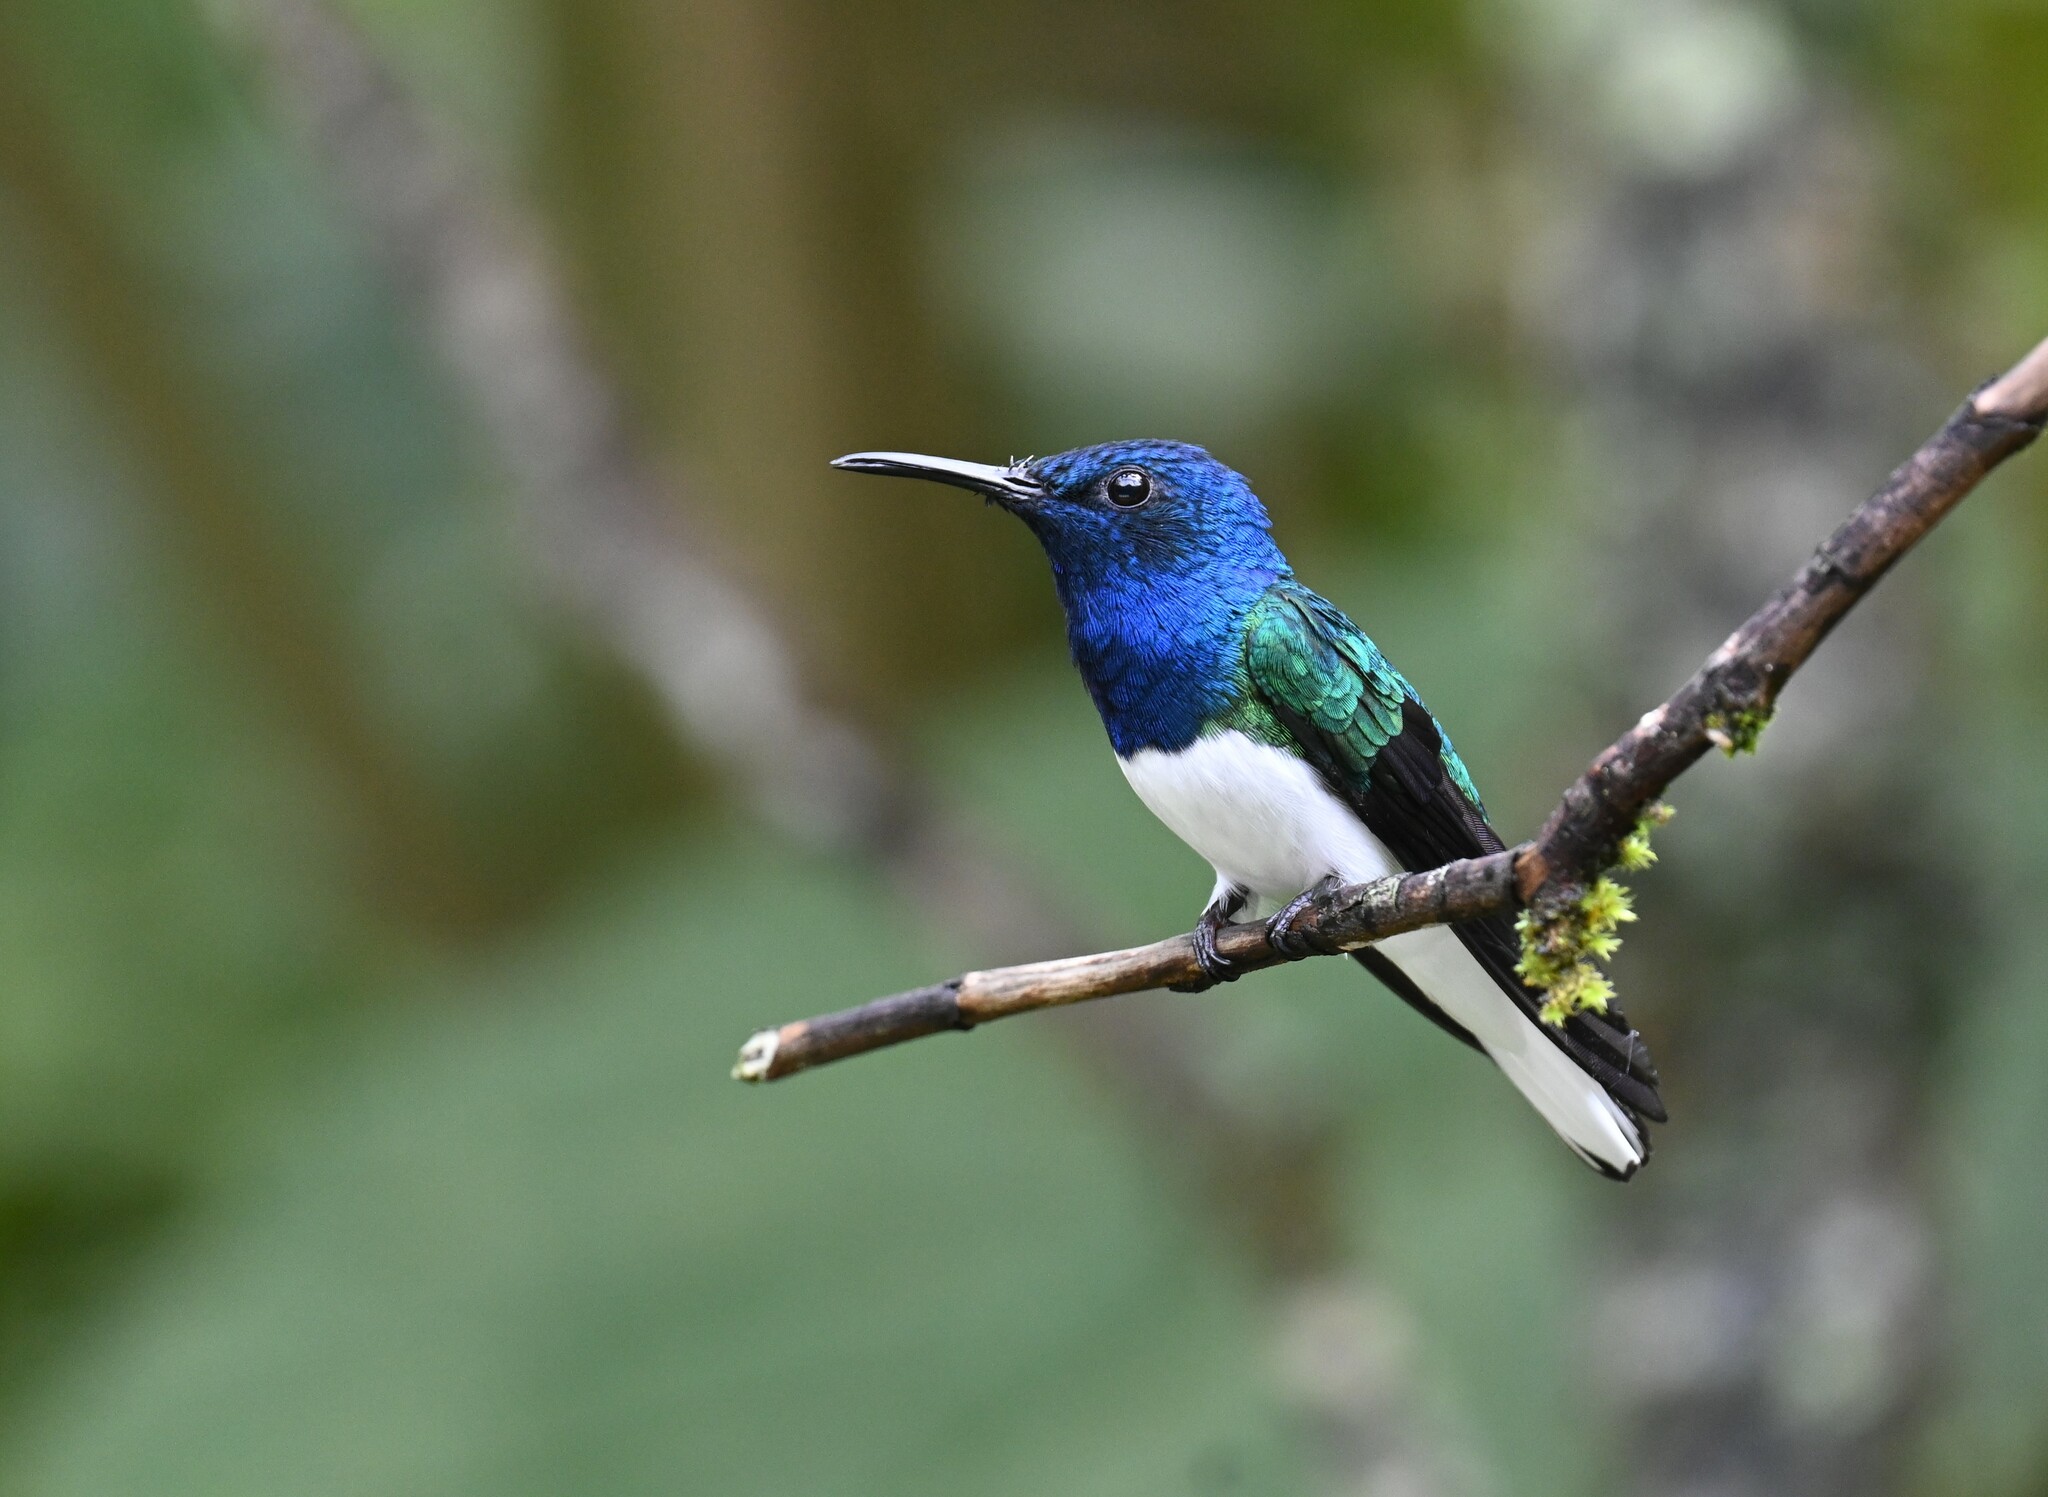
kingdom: Animalia
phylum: Chordata
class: Aves
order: Apodiformes
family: Trochilidae
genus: Florisuga
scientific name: Florisuga mellivora
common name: White-necked jacobin
